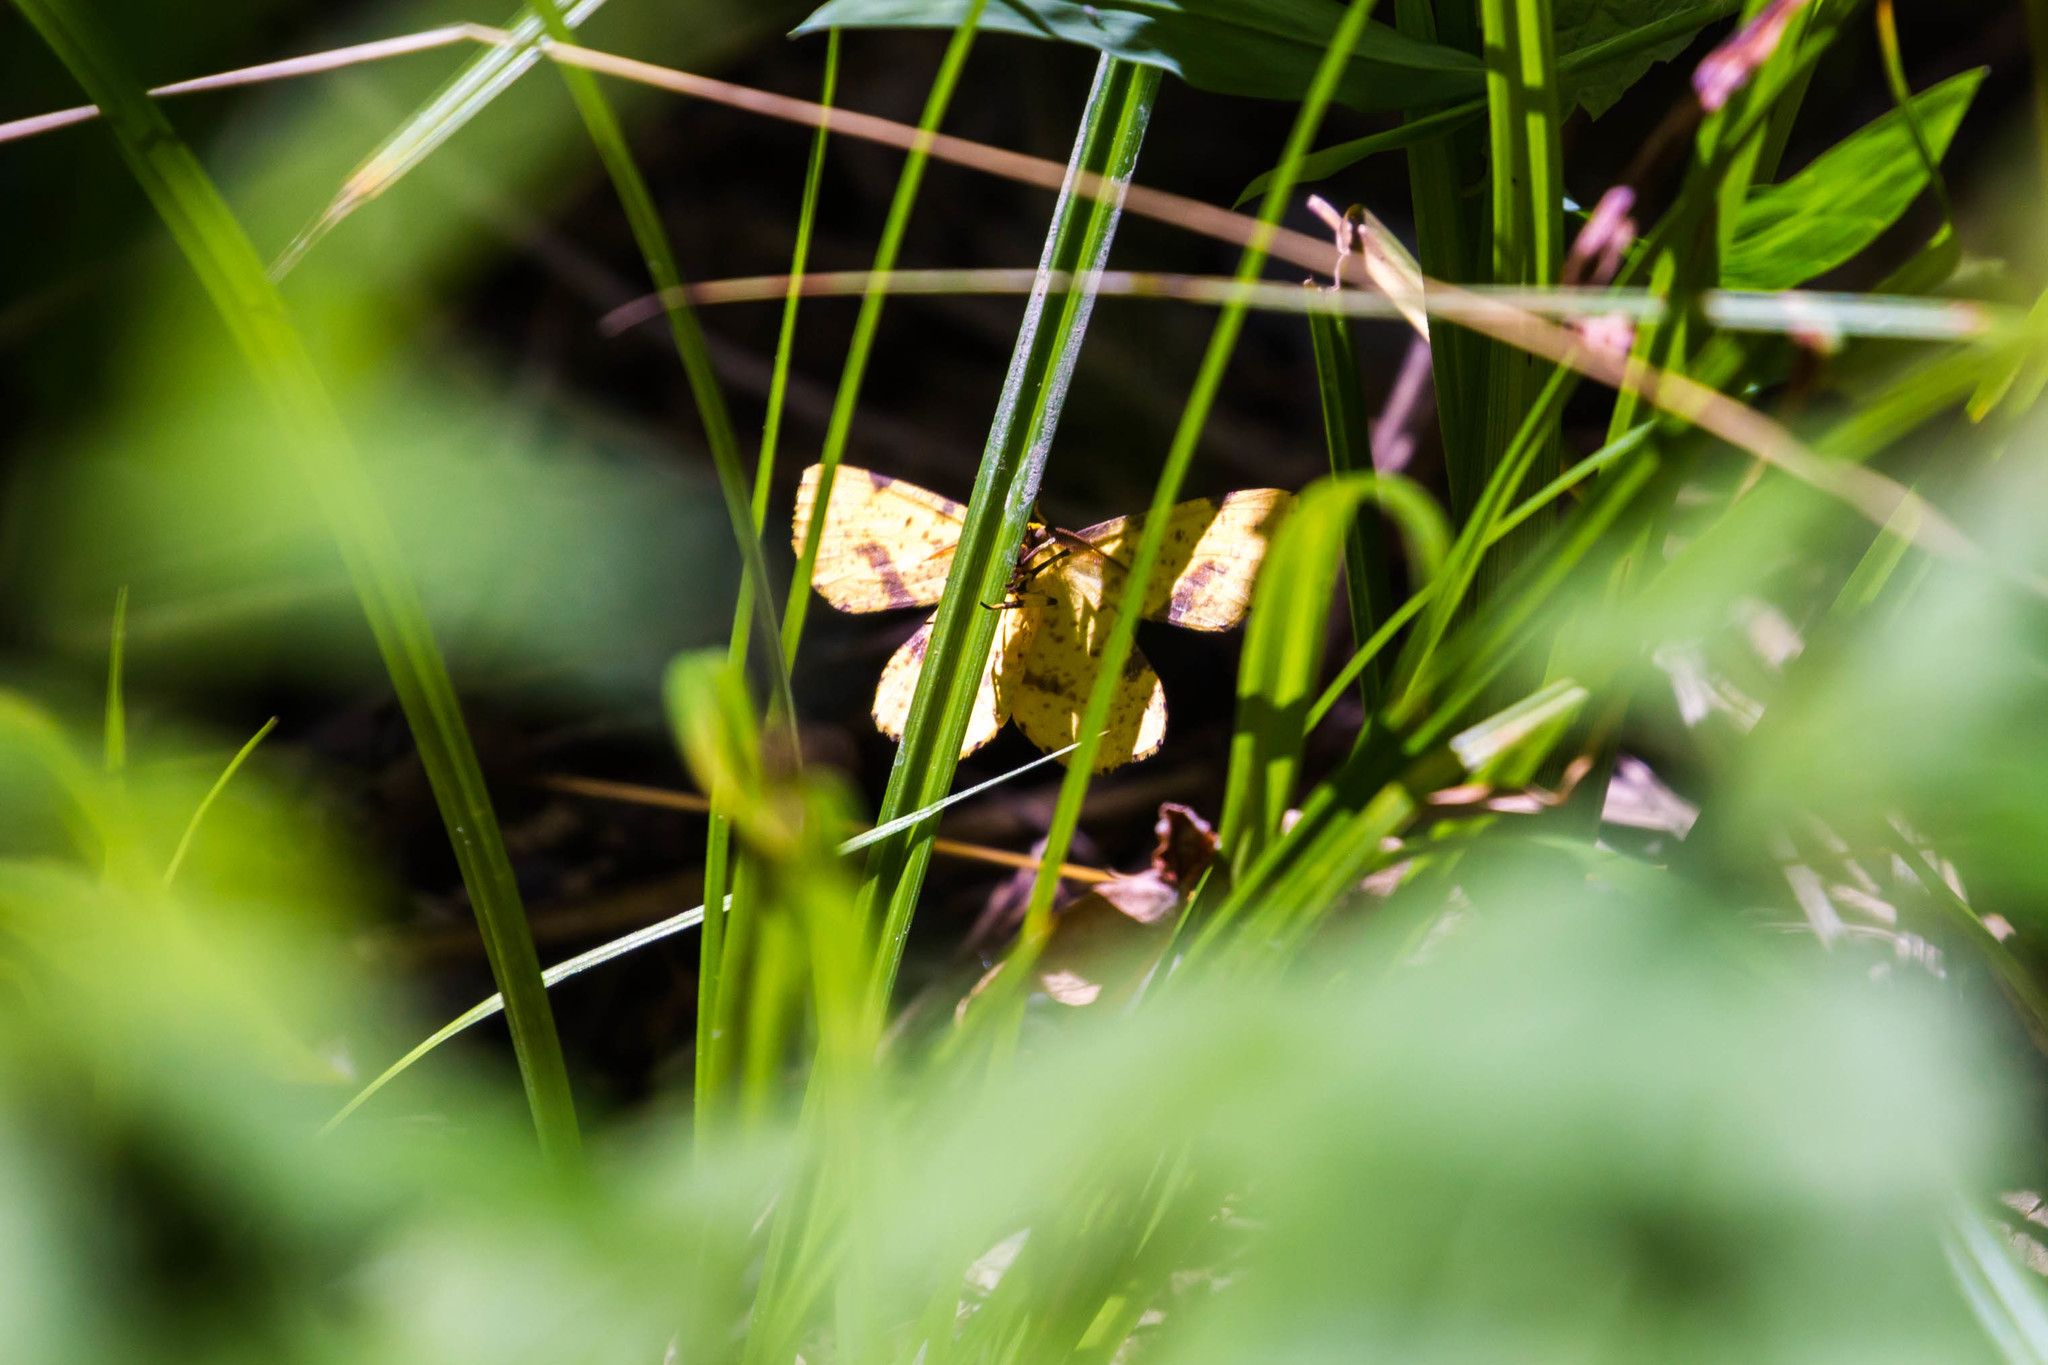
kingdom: Animalia
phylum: Arthropoda
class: Insecta
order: Lepidoptera
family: Geometridae
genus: Xanthotype
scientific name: Xanthotype
